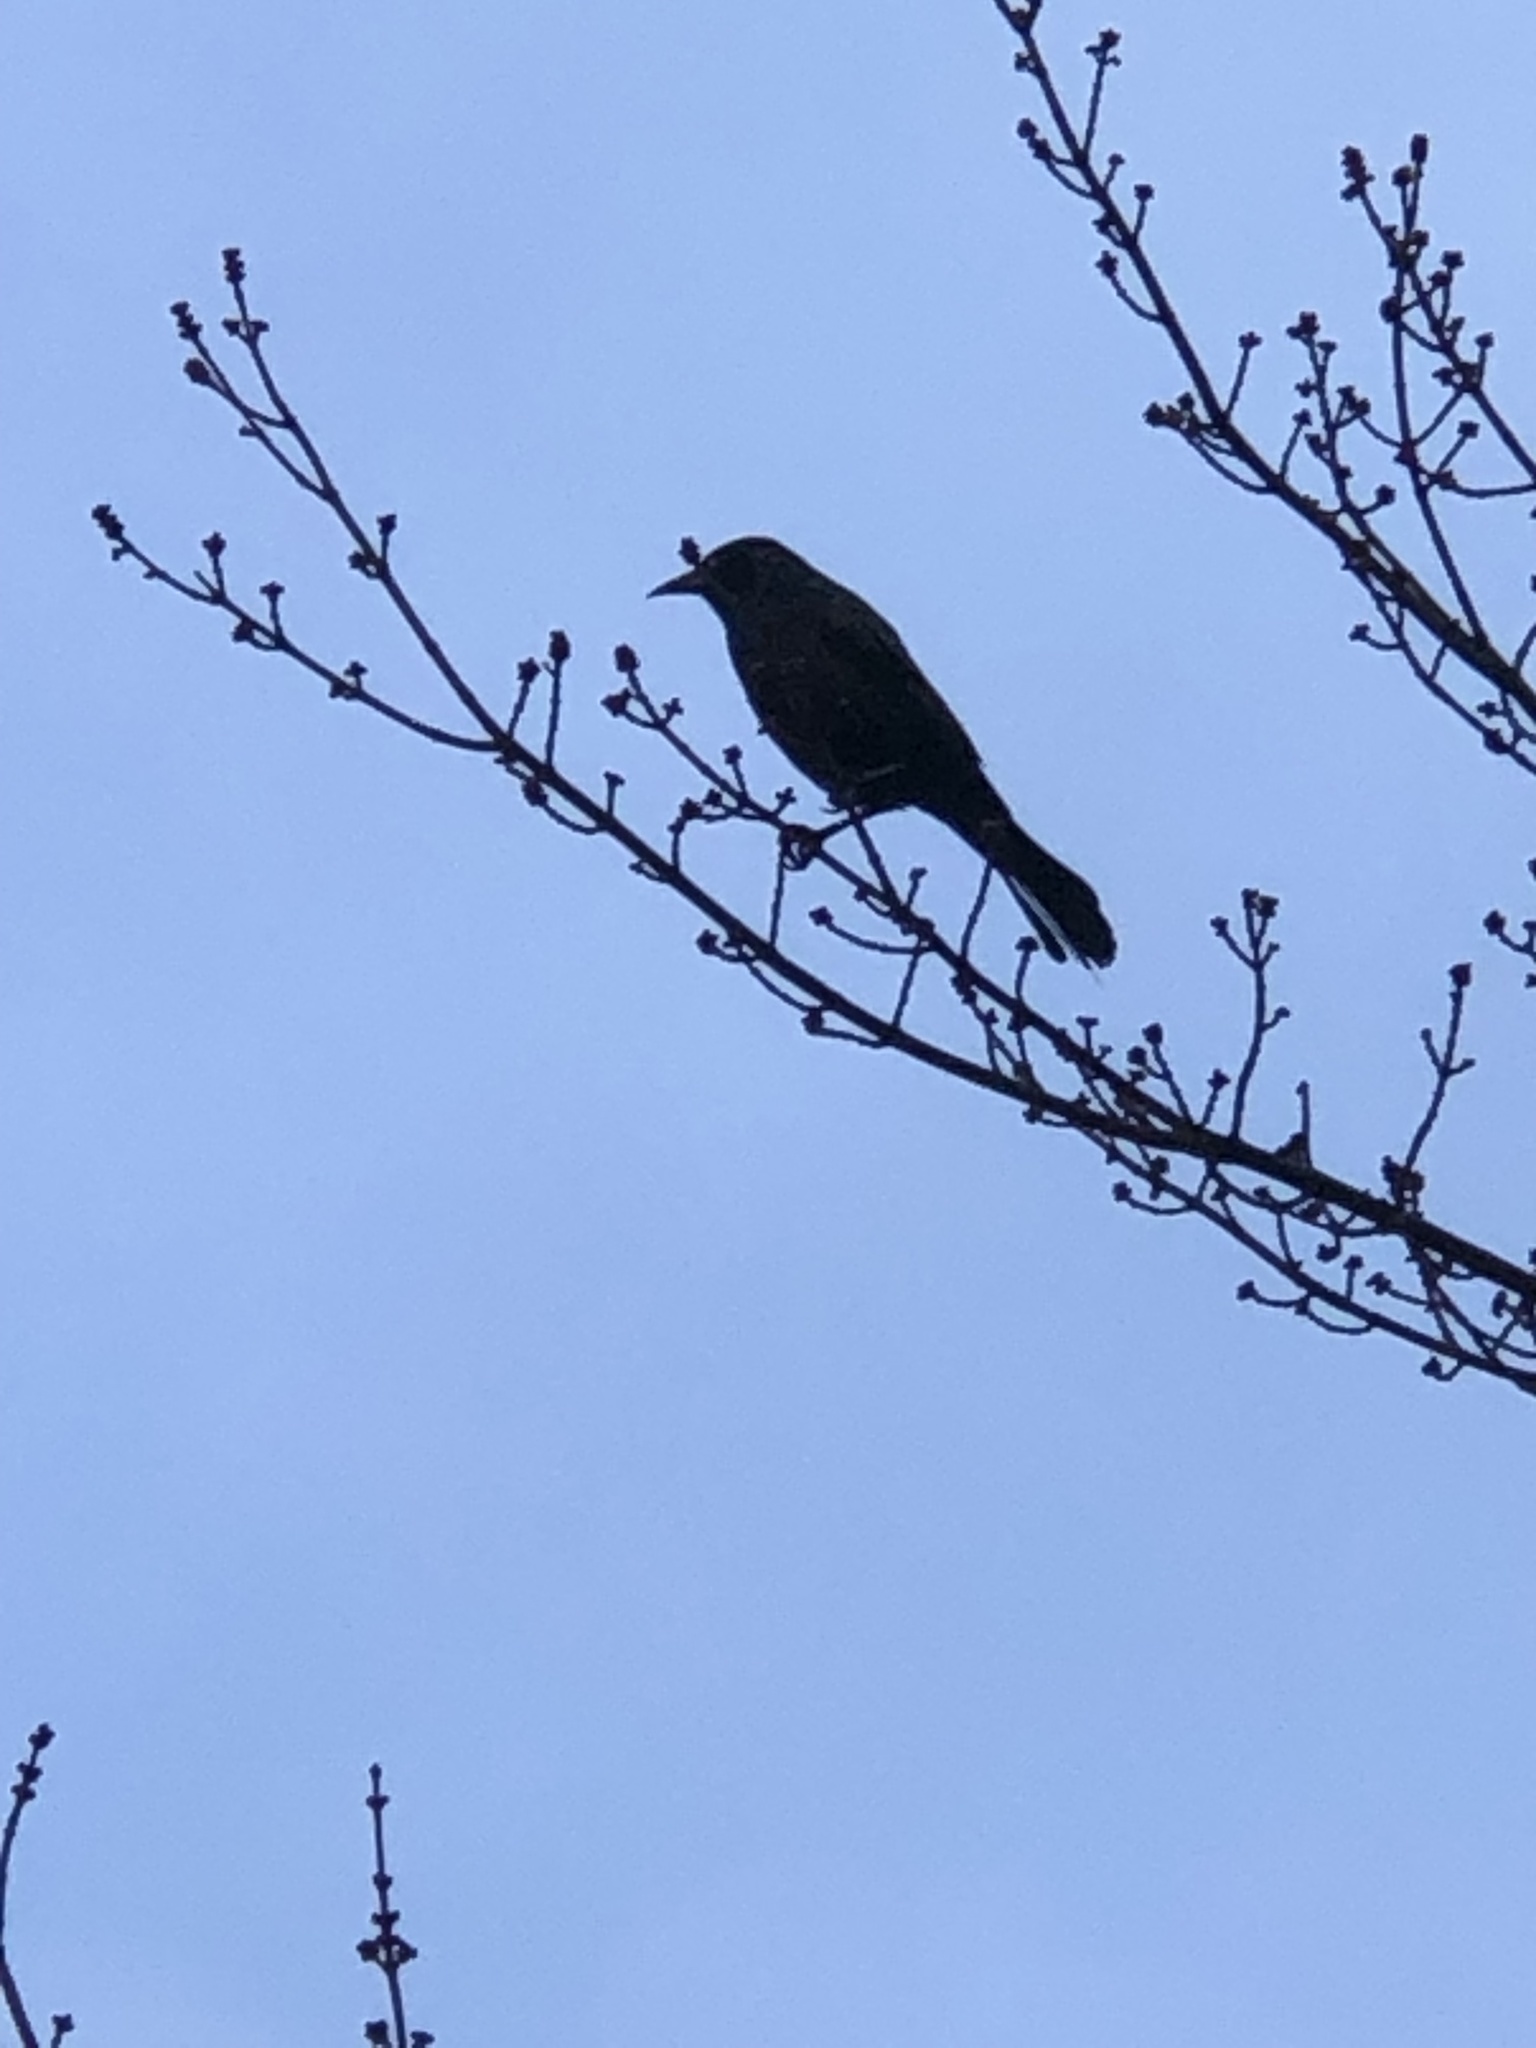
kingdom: Animalia
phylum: Chordata
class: Aves
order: Passeriformes
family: Icteridae
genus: Quiscalus
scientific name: Quiscalus quiscula
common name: Common grackle
